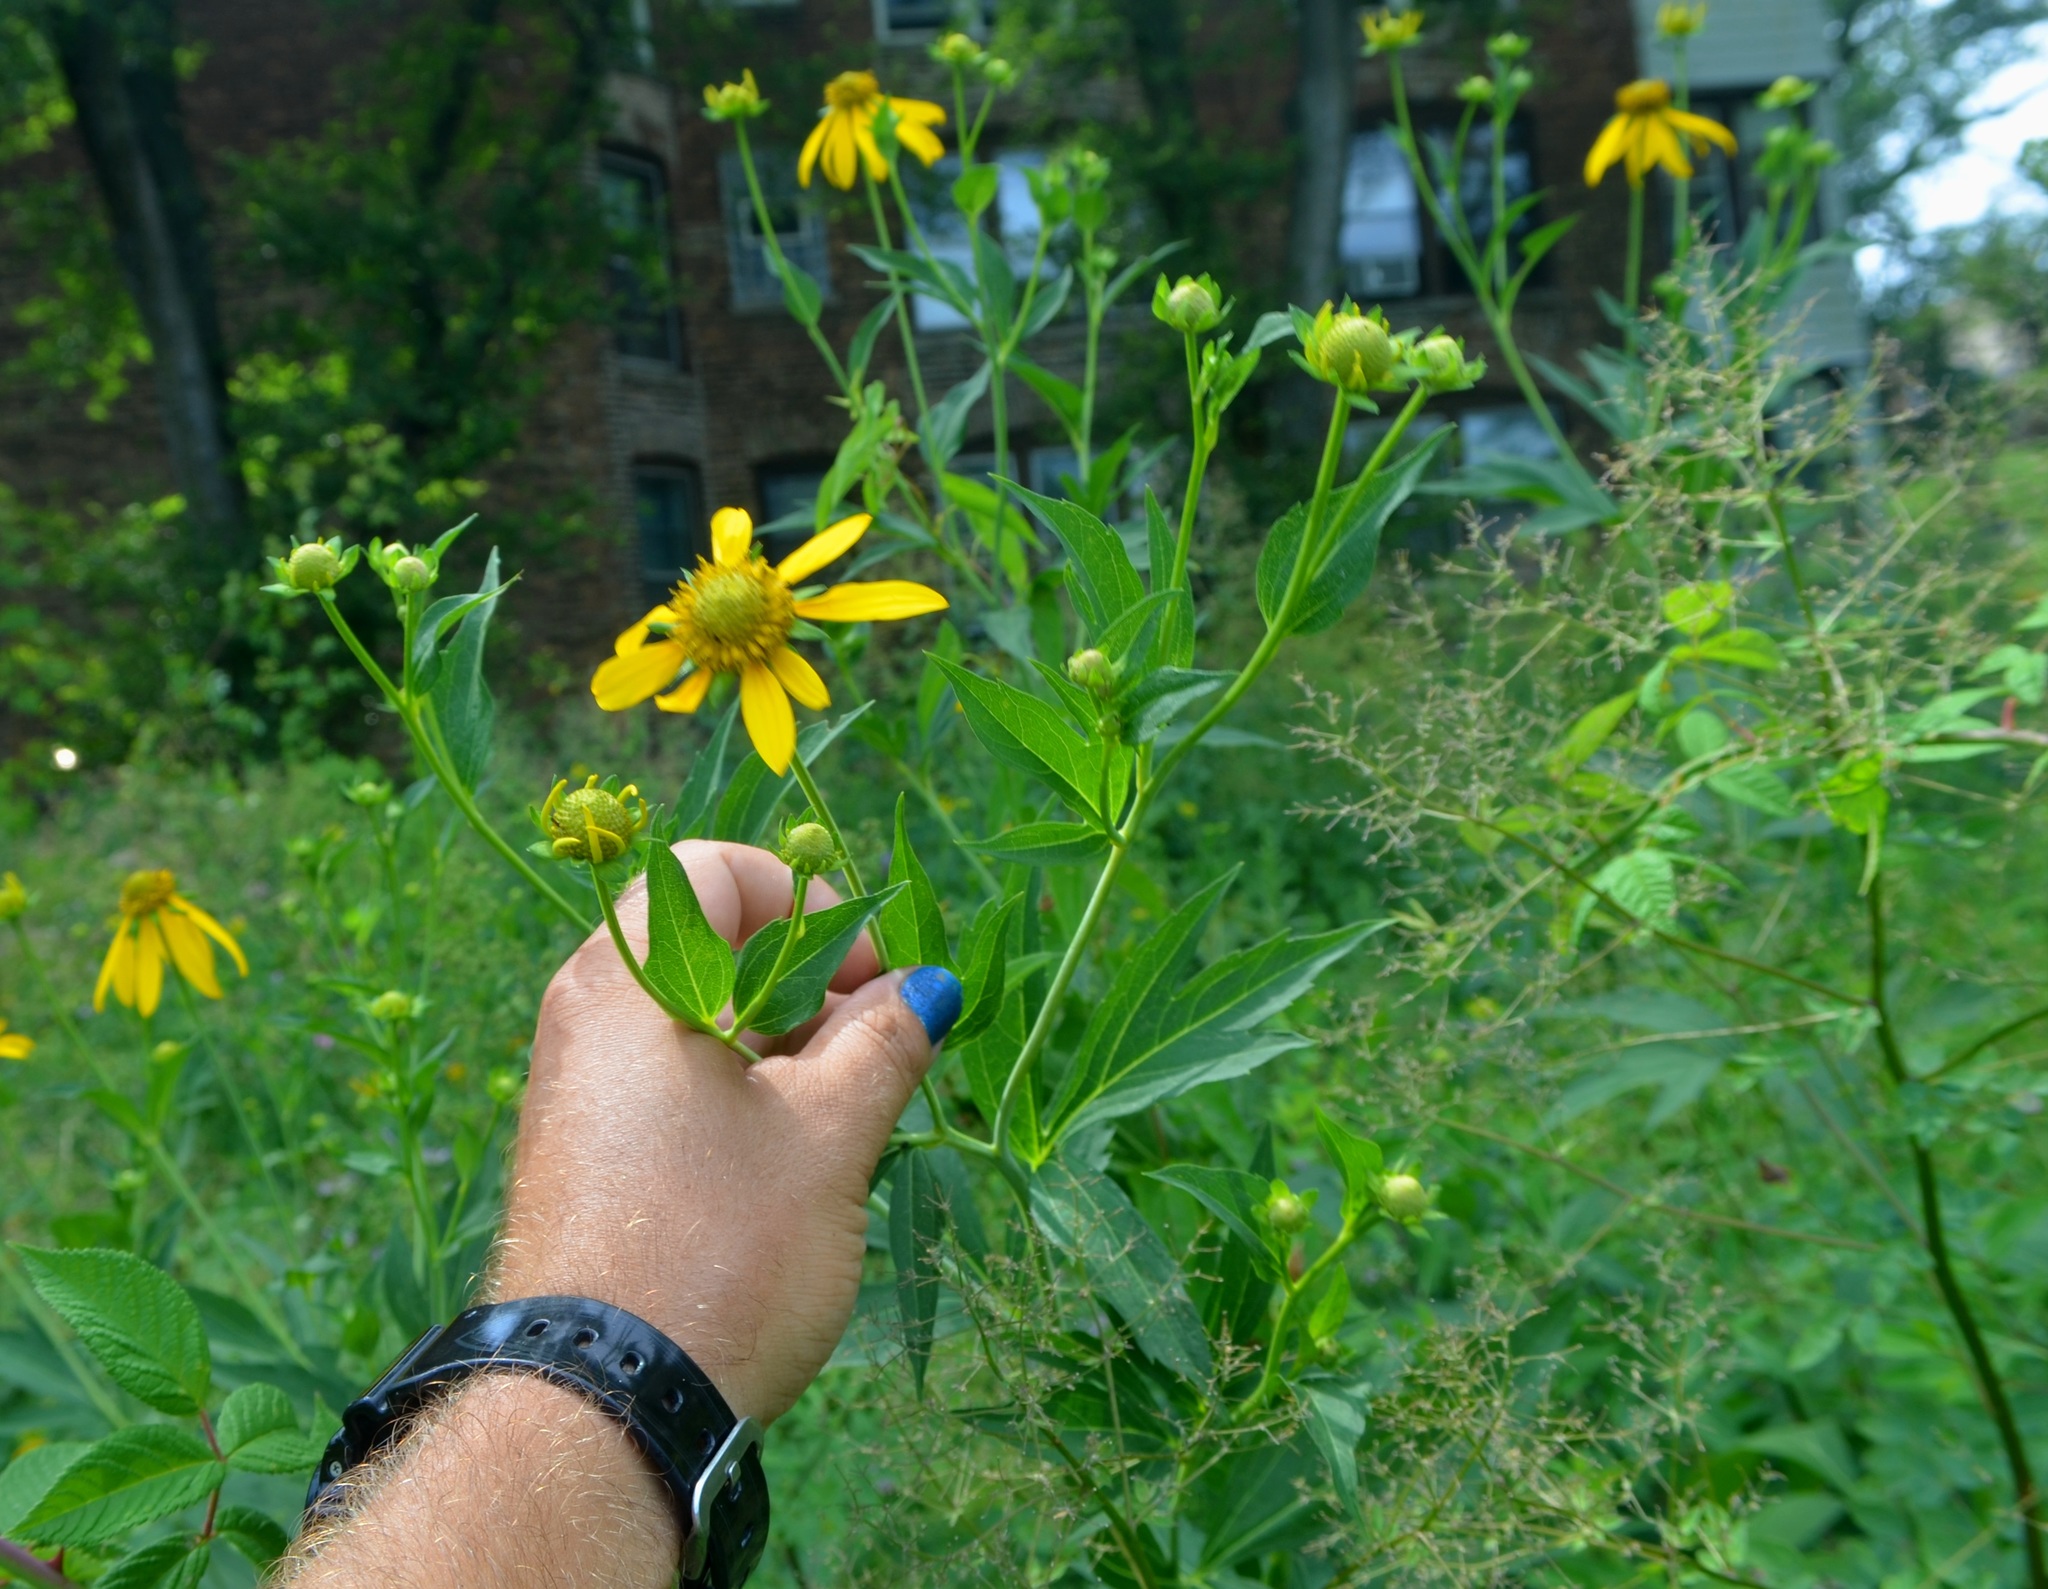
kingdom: Plantae
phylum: Tracheophyta
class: Magnoliopsida
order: Asterales
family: Asteraceae
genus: Rudbeckia
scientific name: Rudbeckia laciniata
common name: Coneflower
